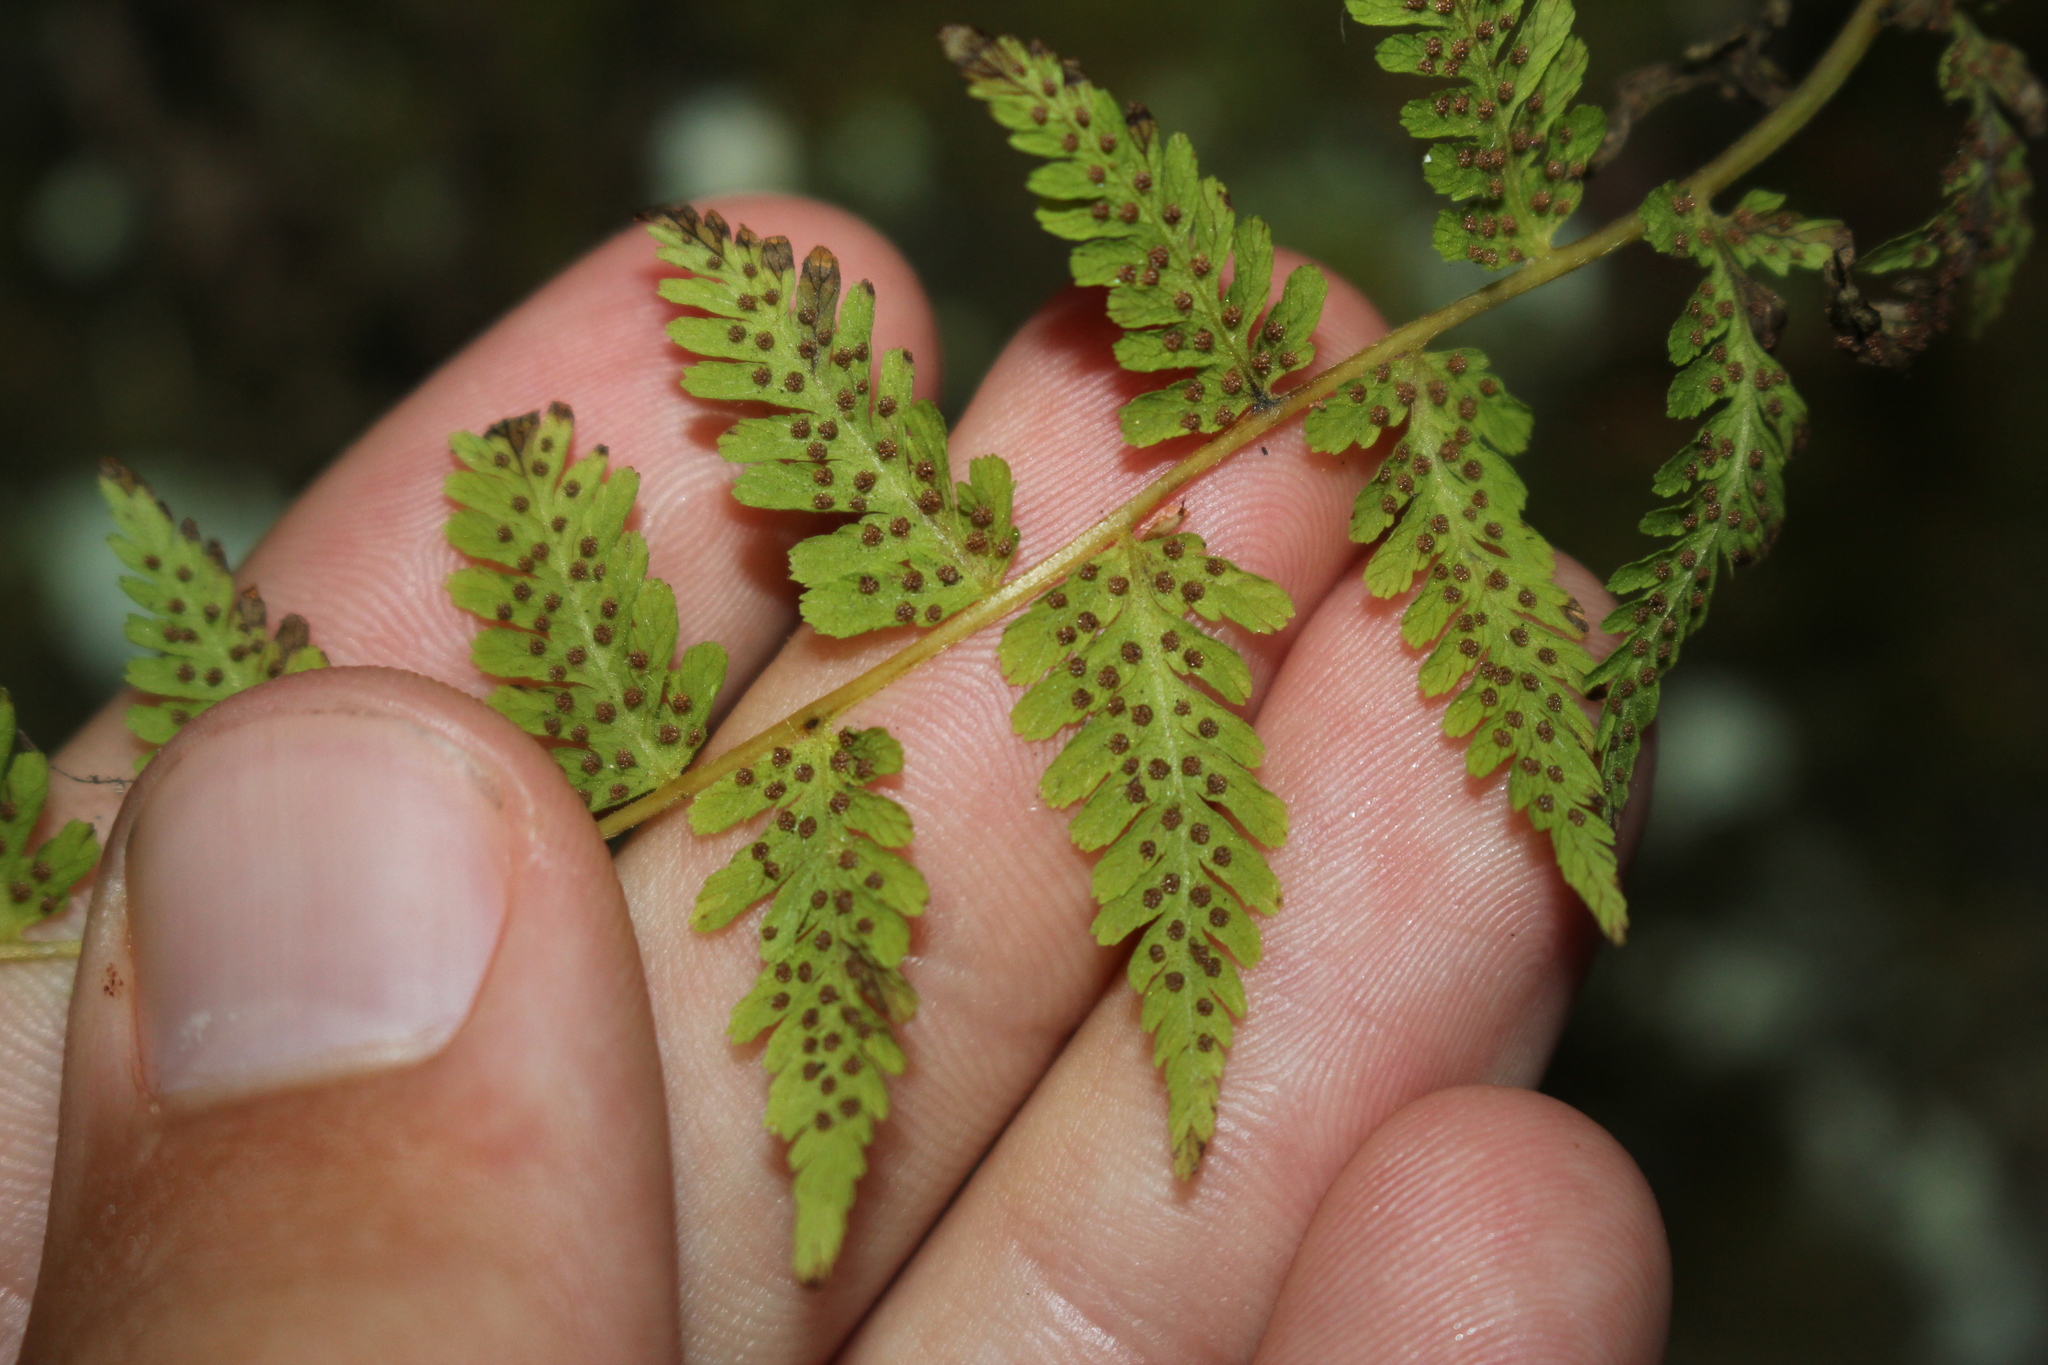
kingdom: Plantae
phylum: Tracheophyta
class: Polypodiopsida
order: Polypodiales
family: Cystopteridaceae
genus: Cystopteris
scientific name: Cystopteris bulbifera
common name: Bulblet bladder fern
